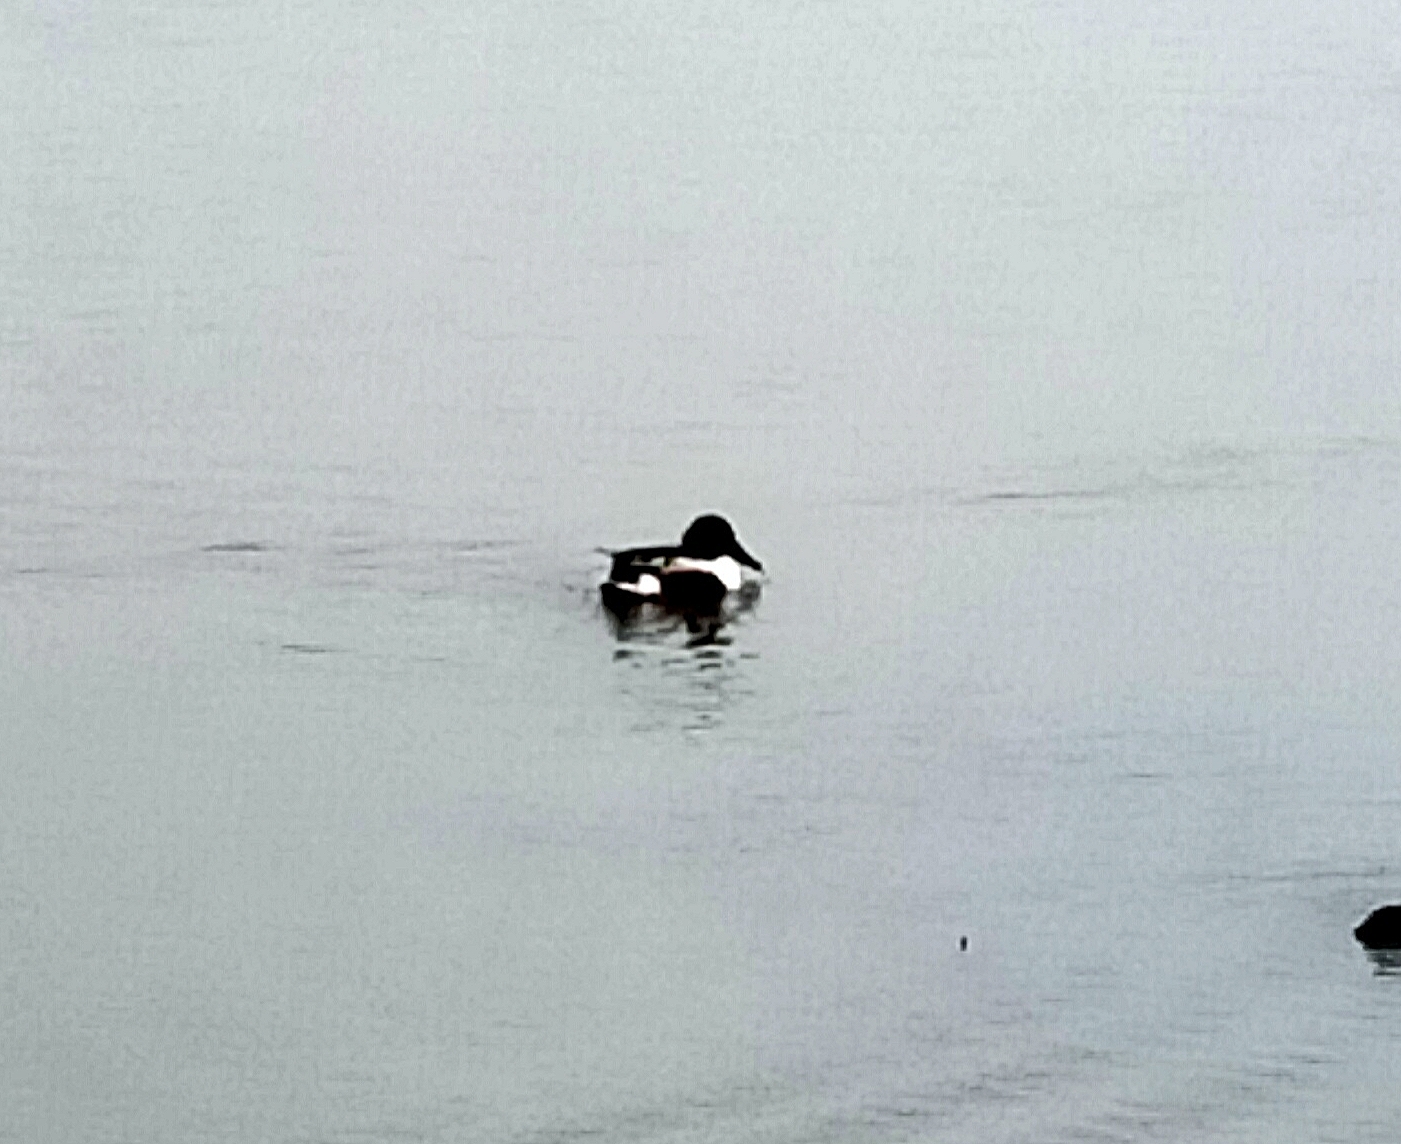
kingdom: Animalia
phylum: Chordata
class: Aves
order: Anseriformes
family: Anatidae
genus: Spatula
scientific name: Spatula clypeata
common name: Northern shoveler
